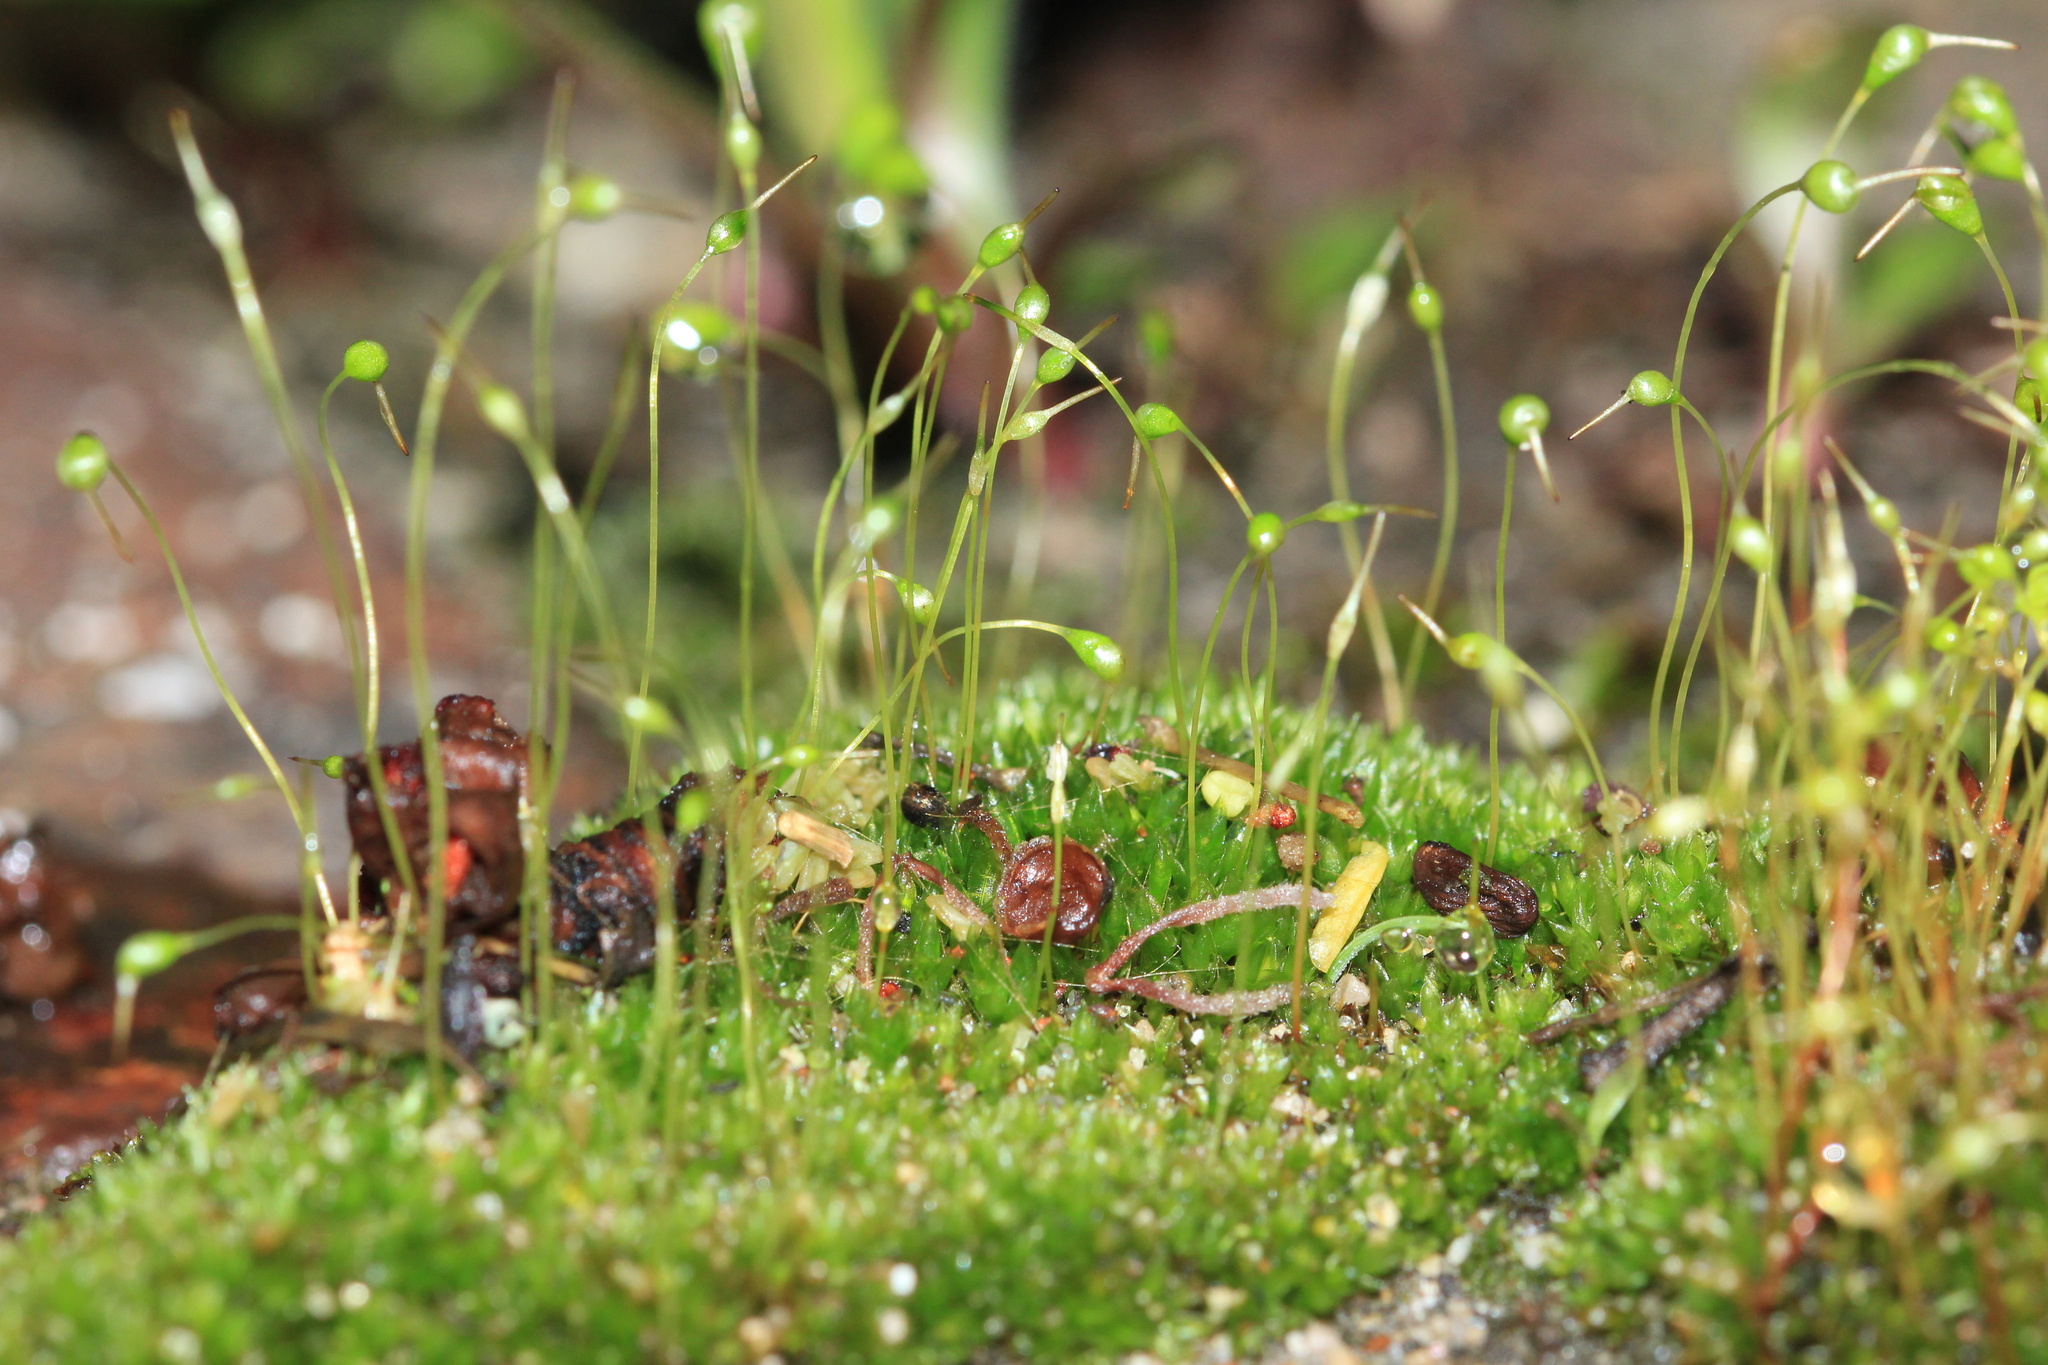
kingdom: Plantae
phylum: Bryophyta
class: Bryopsida
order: Funariales
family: Funariaceae
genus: Funaria
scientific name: Funaria hygrometrica
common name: Common cord moss
